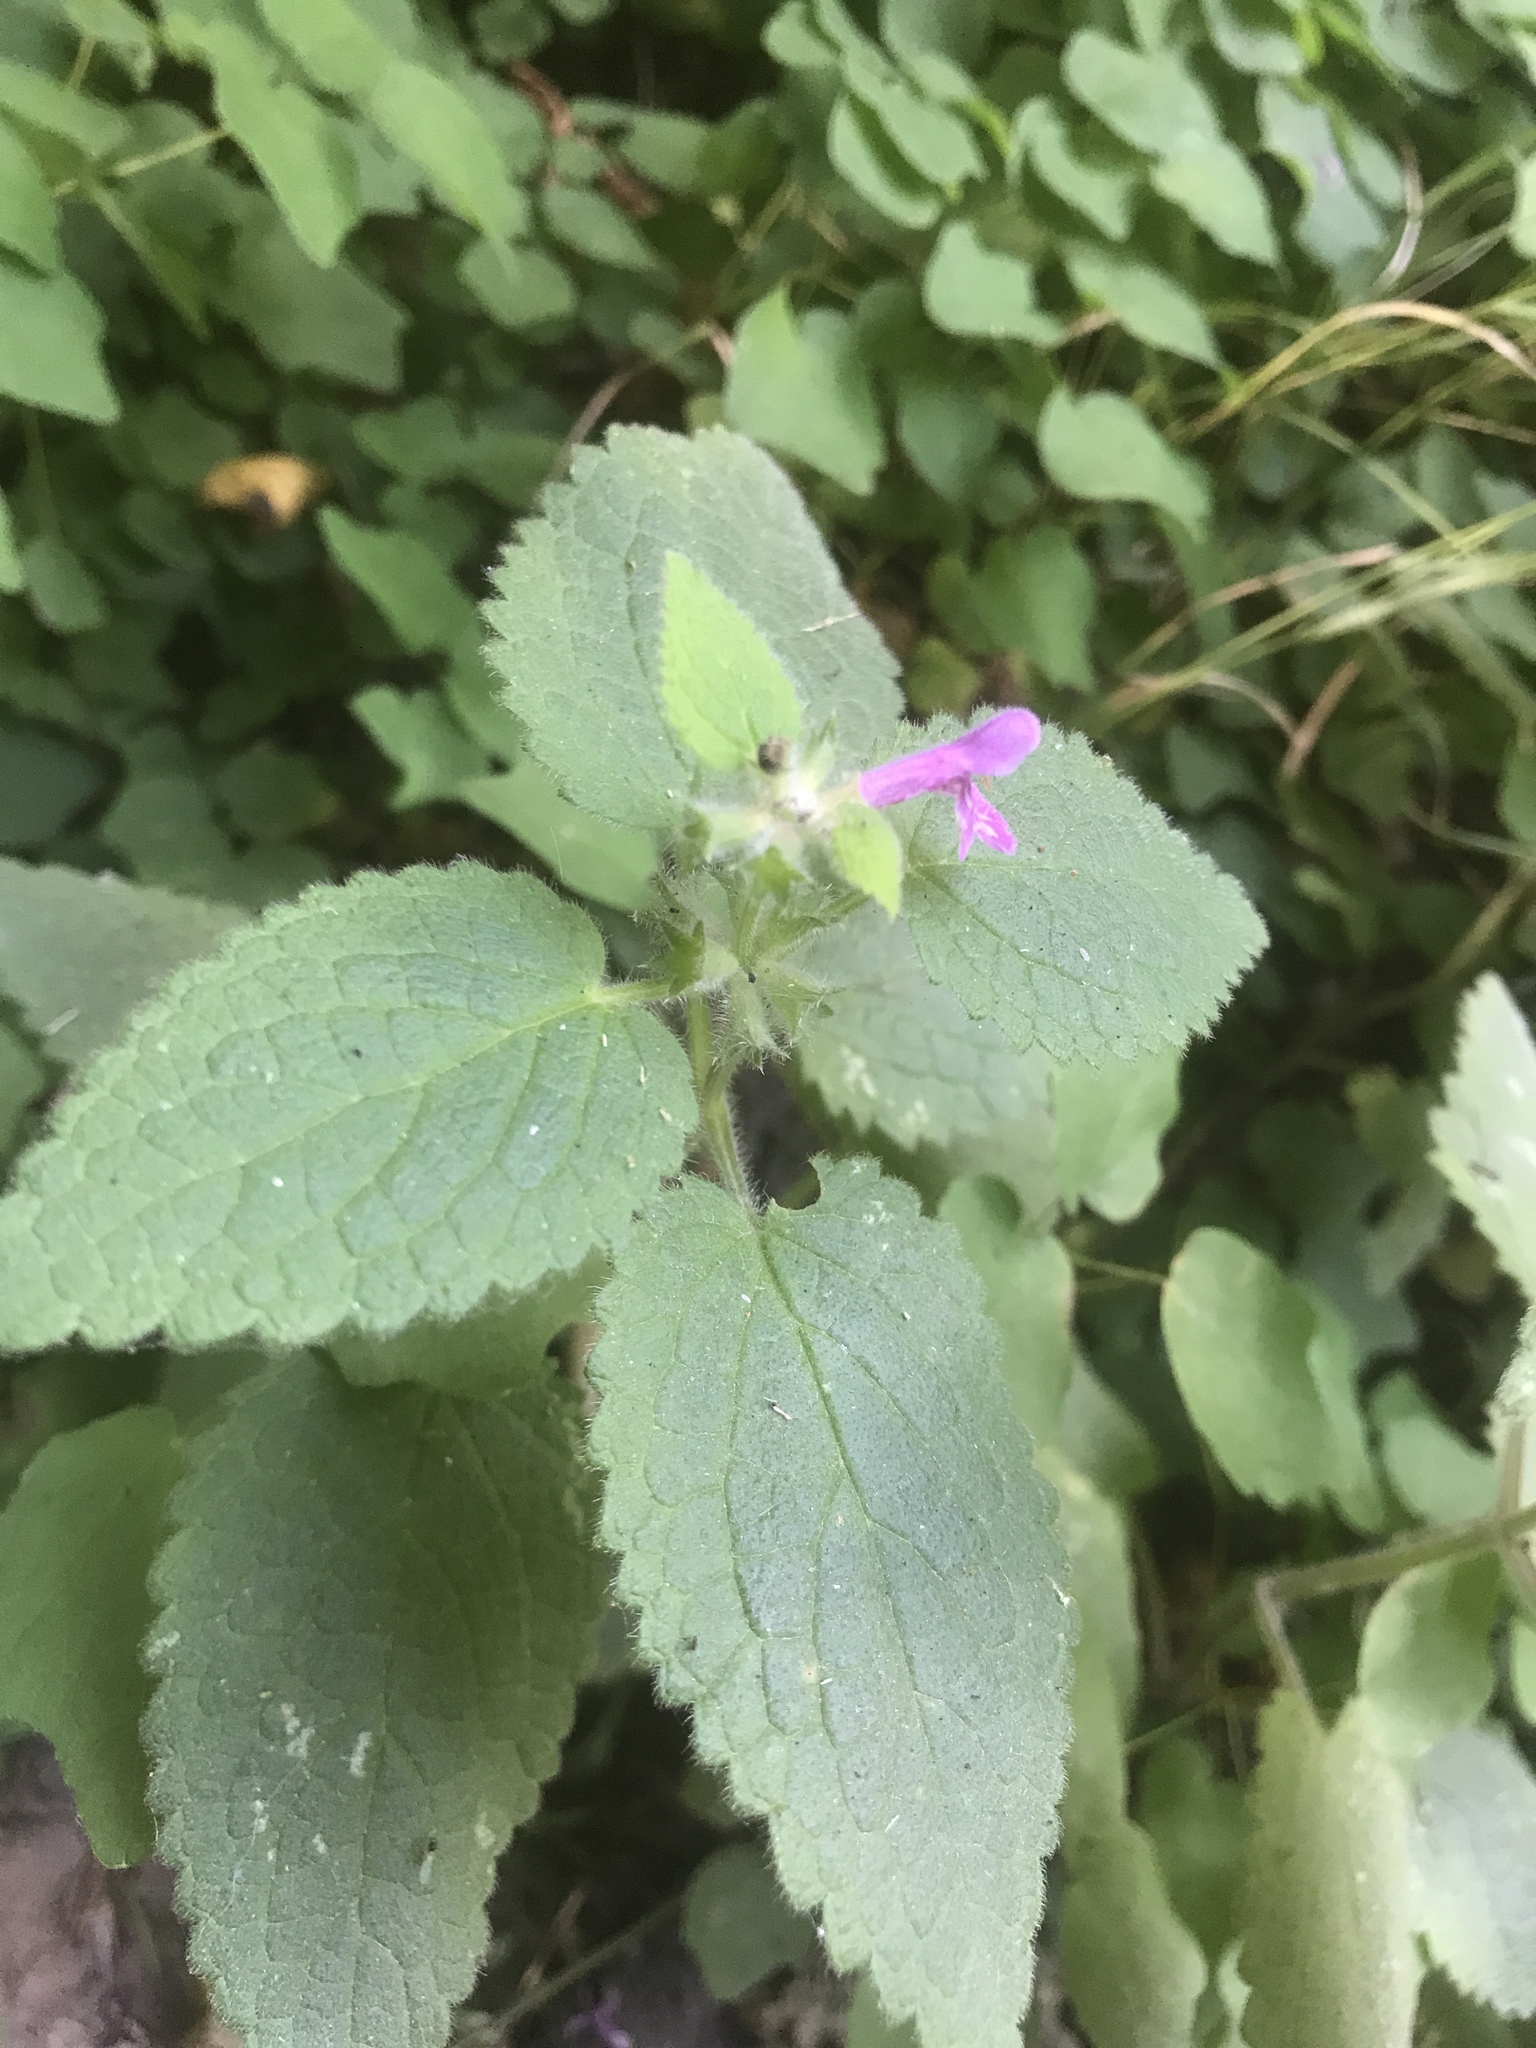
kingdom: Plantae
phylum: Tracheophyta
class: Magnoliopsida
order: Lamiales
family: Lamiaceae
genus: Stachys
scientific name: Stachys chamissonis
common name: Coastal hedge-nettle
